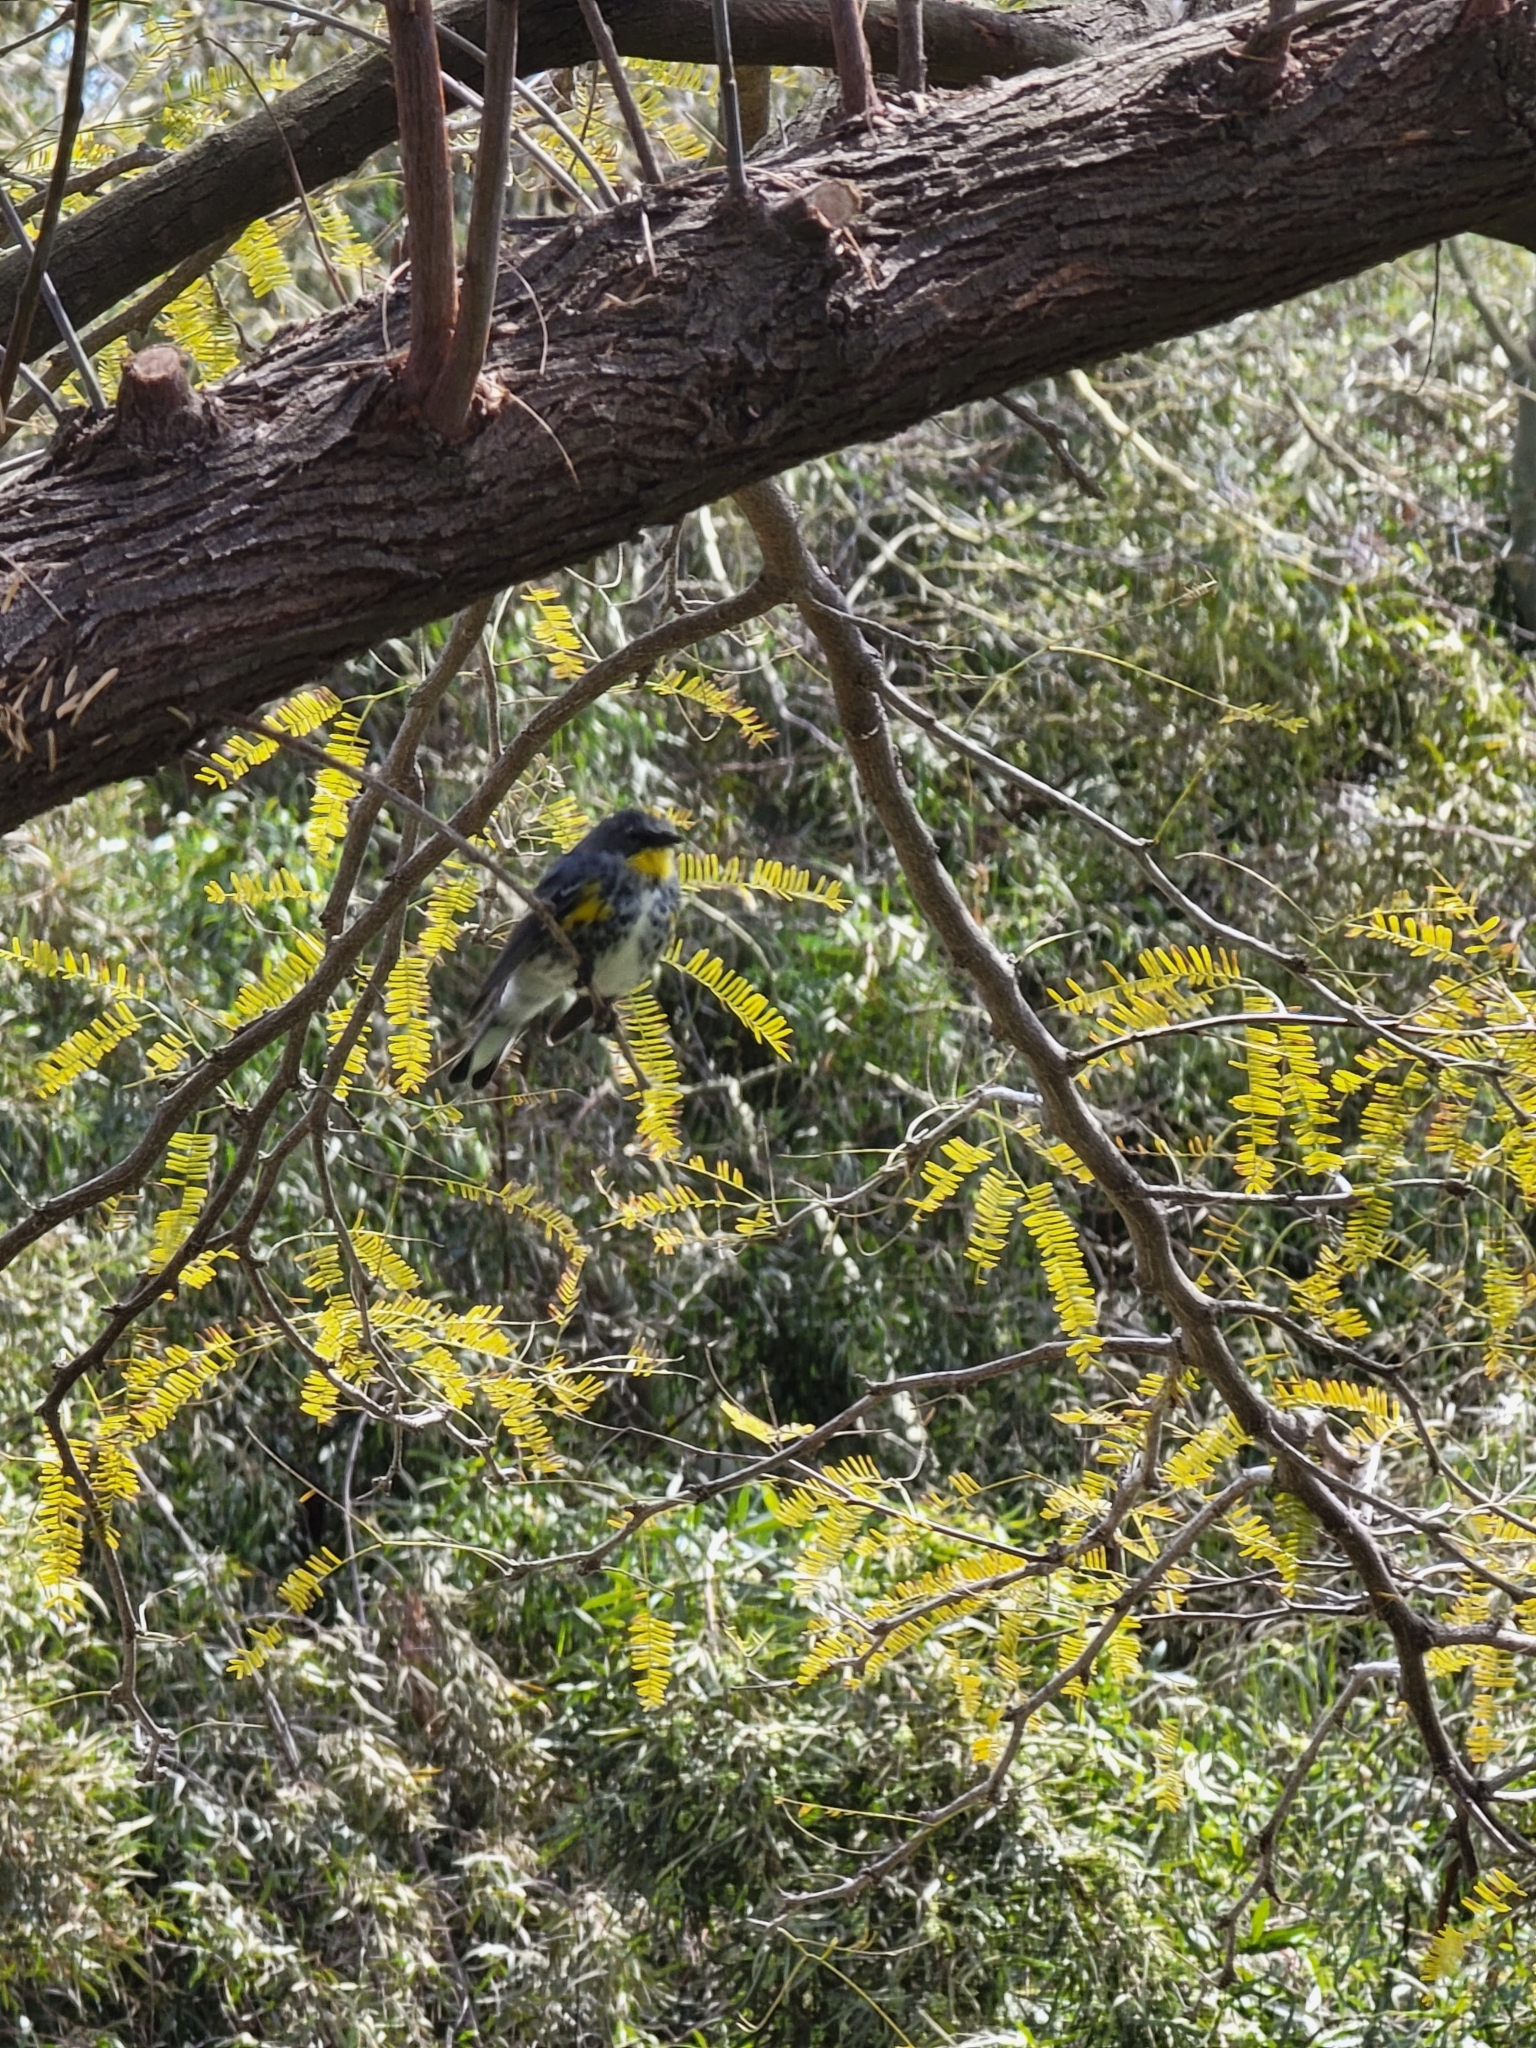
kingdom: Animalia
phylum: Chordata
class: Aves
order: Passeriformes
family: Parulidae
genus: Setophaga
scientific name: Setophaga auduboni
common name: Audubon's warbler
